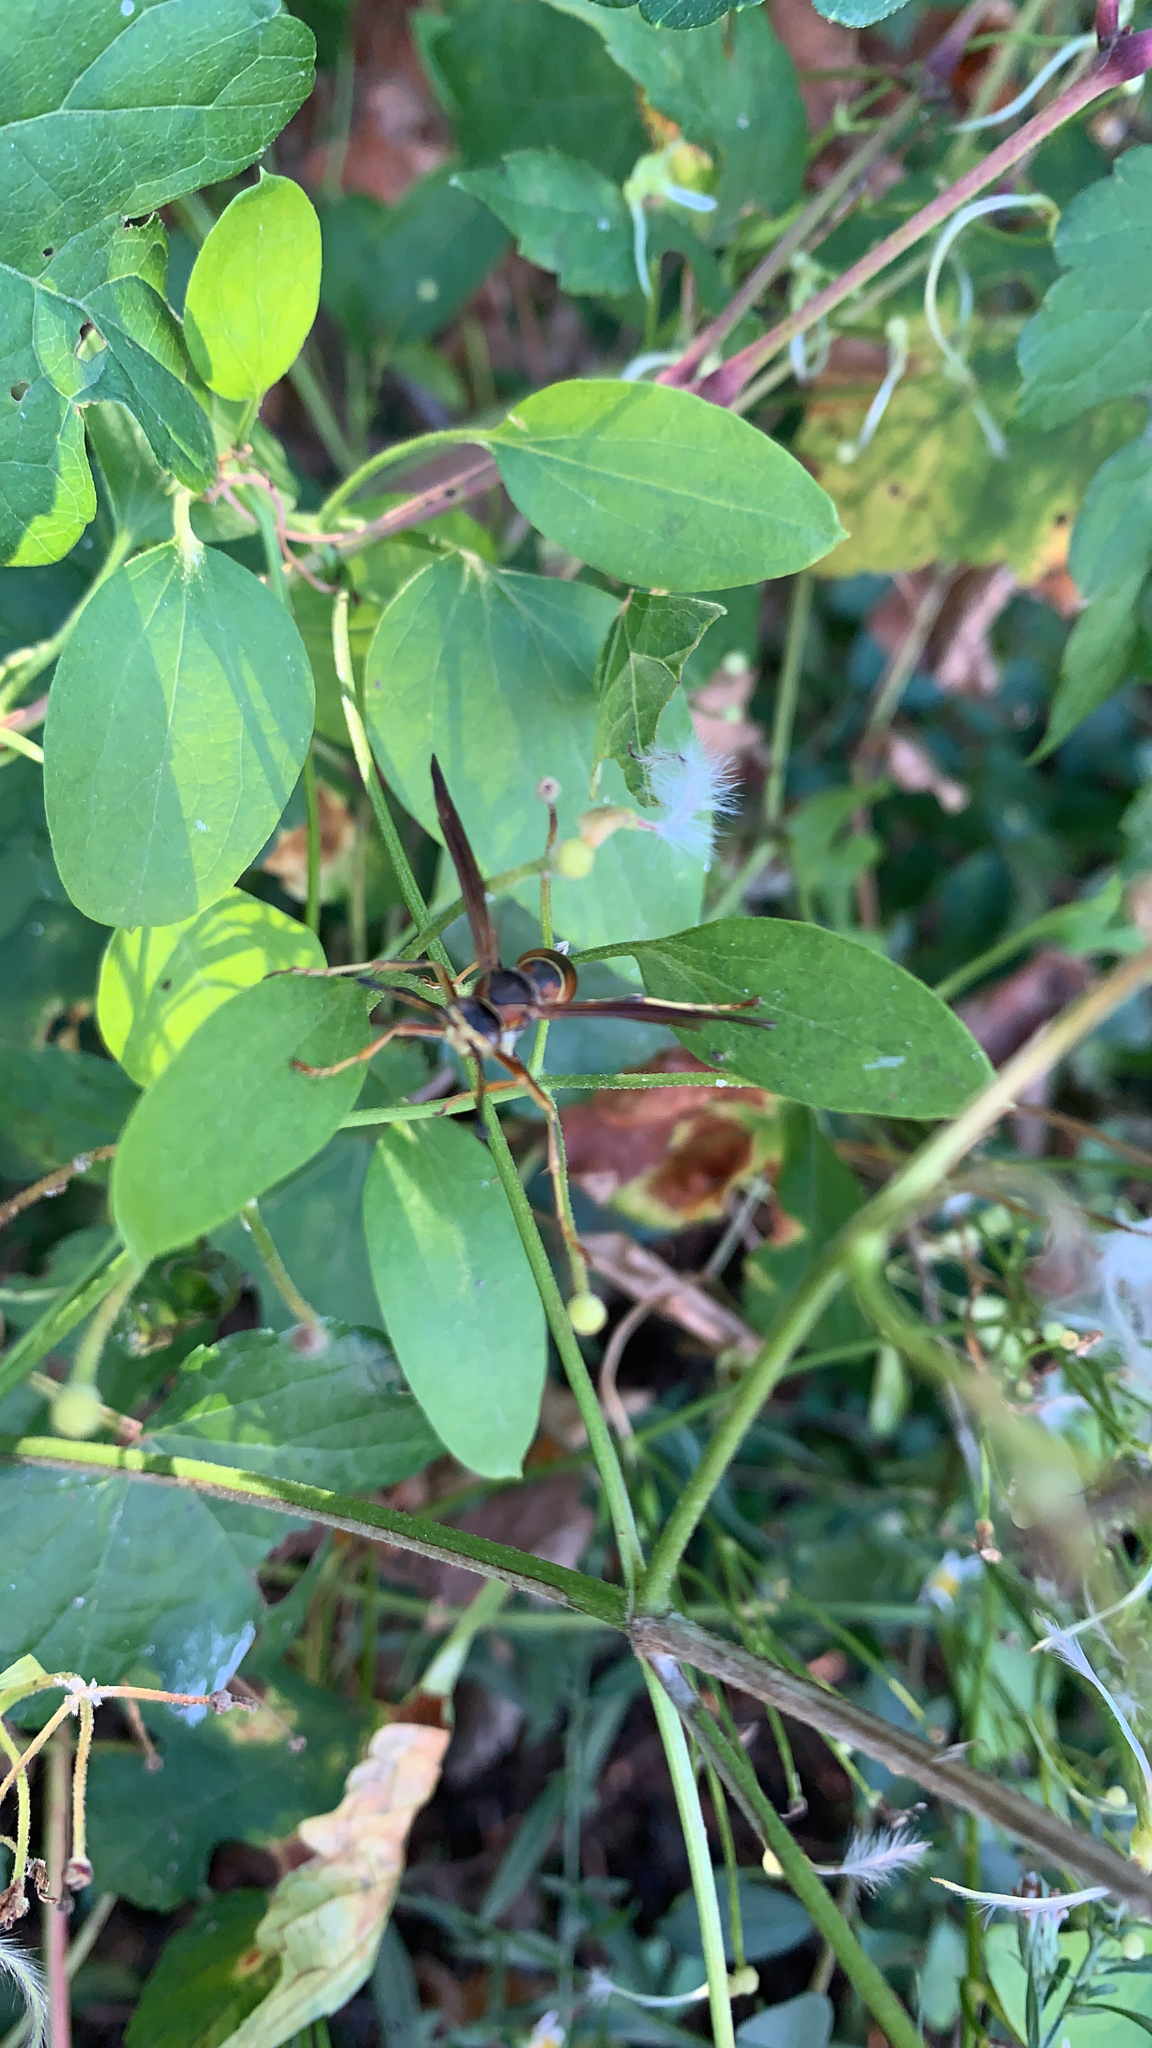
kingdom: Animalia
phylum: Arthropoda
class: Insecta
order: Hymenoptera
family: Eumenidae
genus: Polistes
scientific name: Polistes fuscatus
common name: Dark paper wasp
